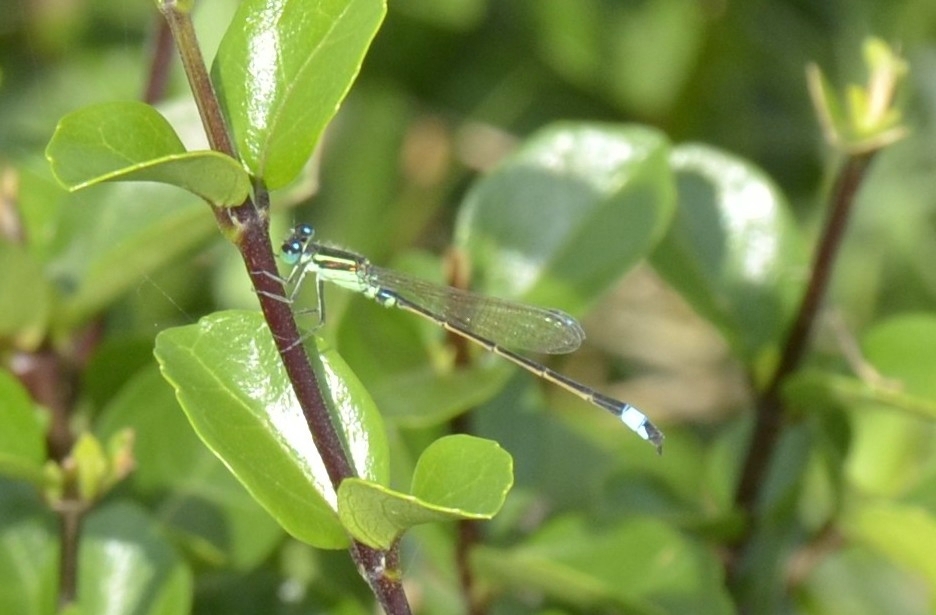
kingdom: Animalia
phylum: Arthropoda
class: Insecta
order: Odonata
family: Coenagrionidae
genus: Ischnura
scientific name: Ischnura senegalensis
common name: Tropical bluetail
